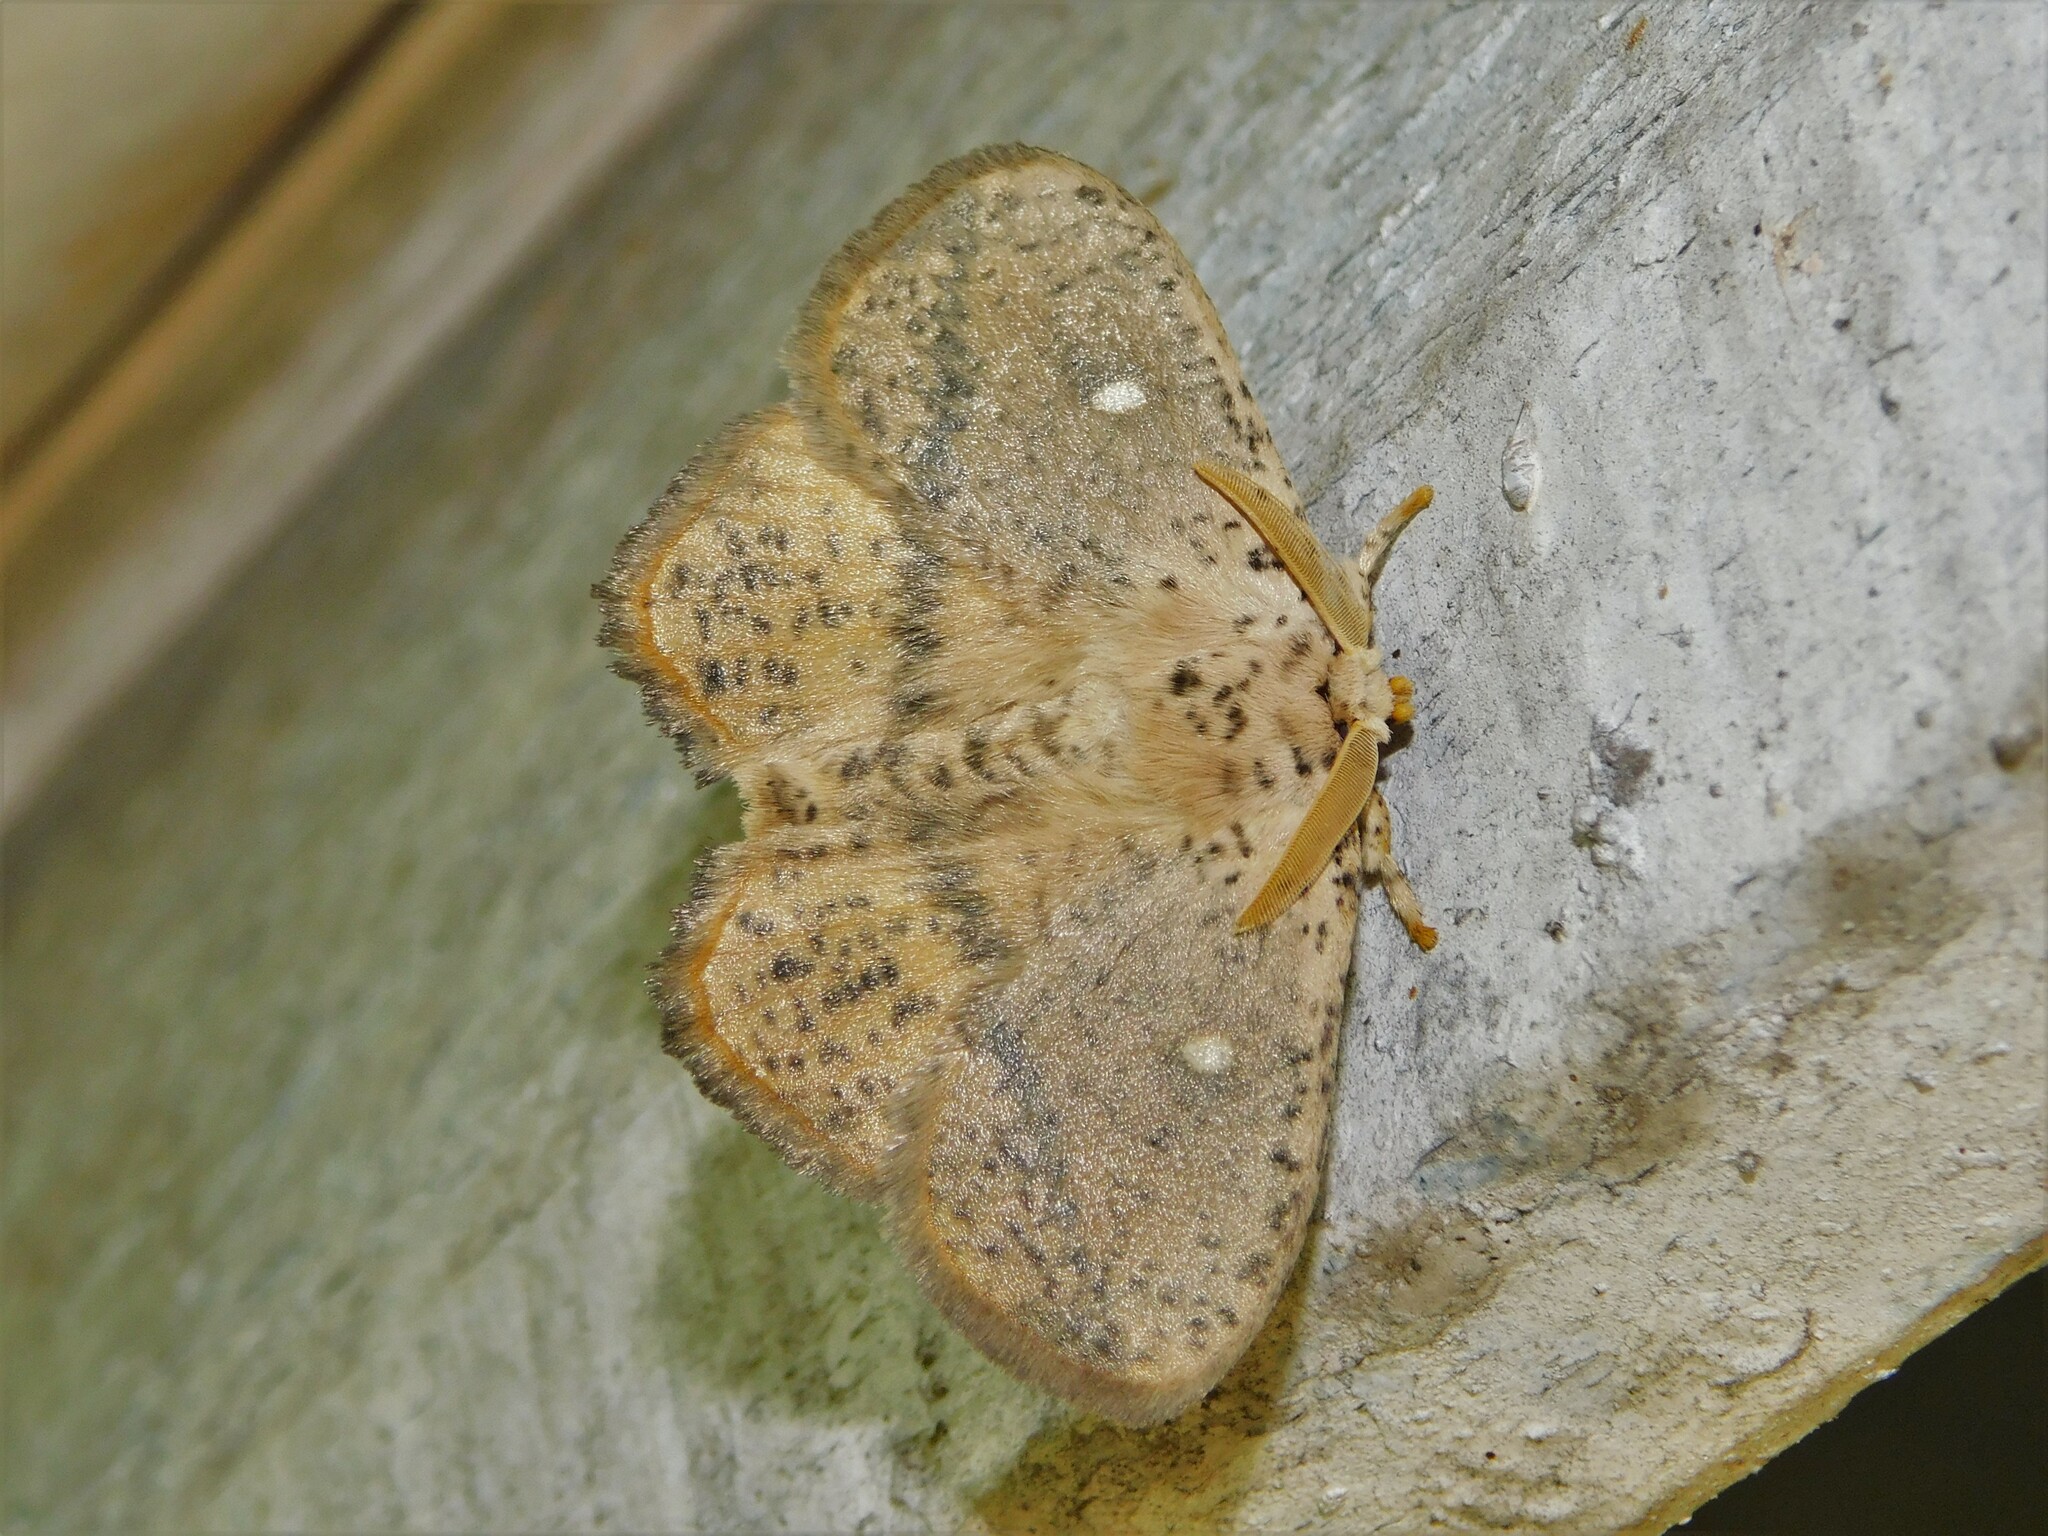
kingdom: Animalia
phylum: Arthropoda
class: Insecta
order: Lepidoptera
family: Limacodidae
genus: Achrocerides
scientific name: Achrocerides theorini
